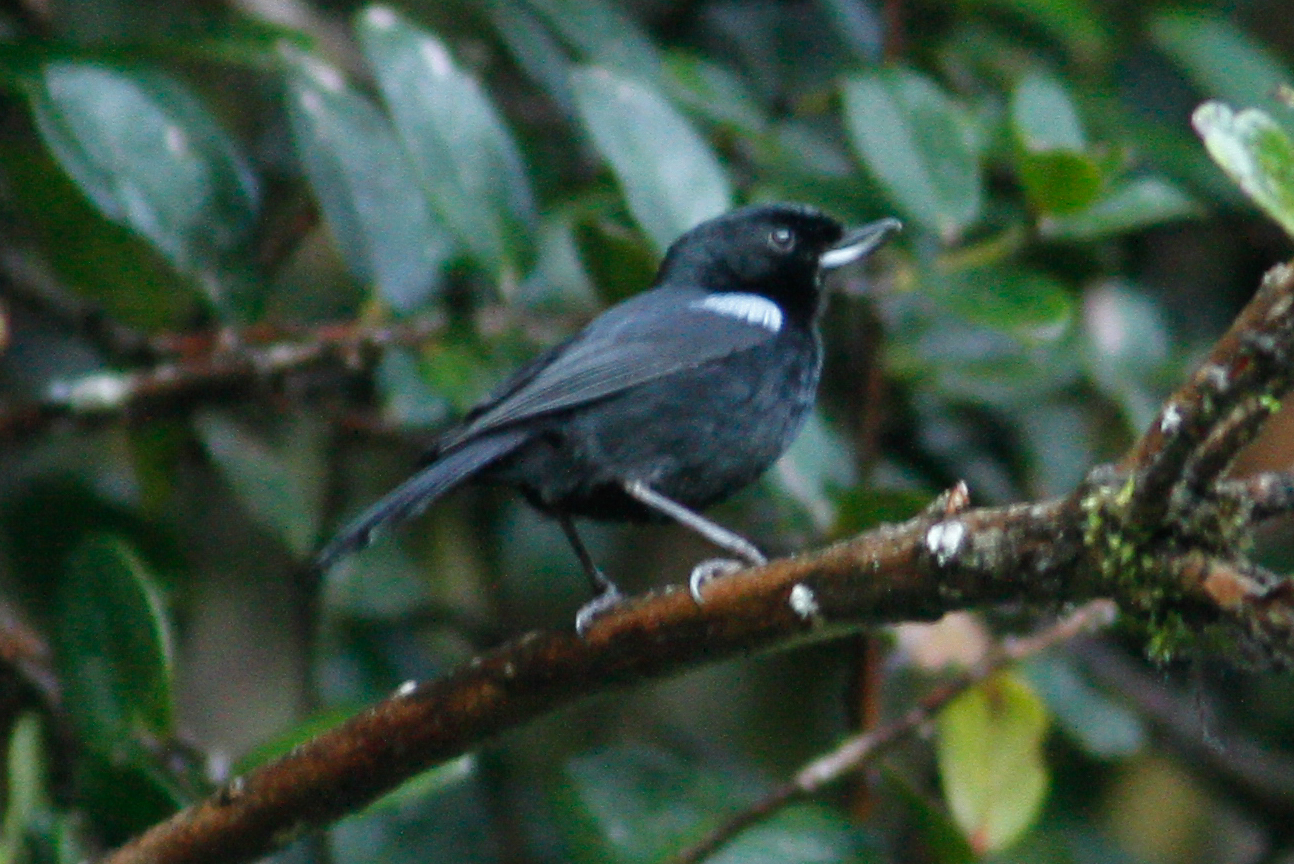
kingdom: Animalia
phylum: Chordata
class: Aves
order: Passeriformes
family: Thraupidae
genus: Diglossa
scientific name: Diglossa lafresnayii
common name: Glossy flowerpiercer
